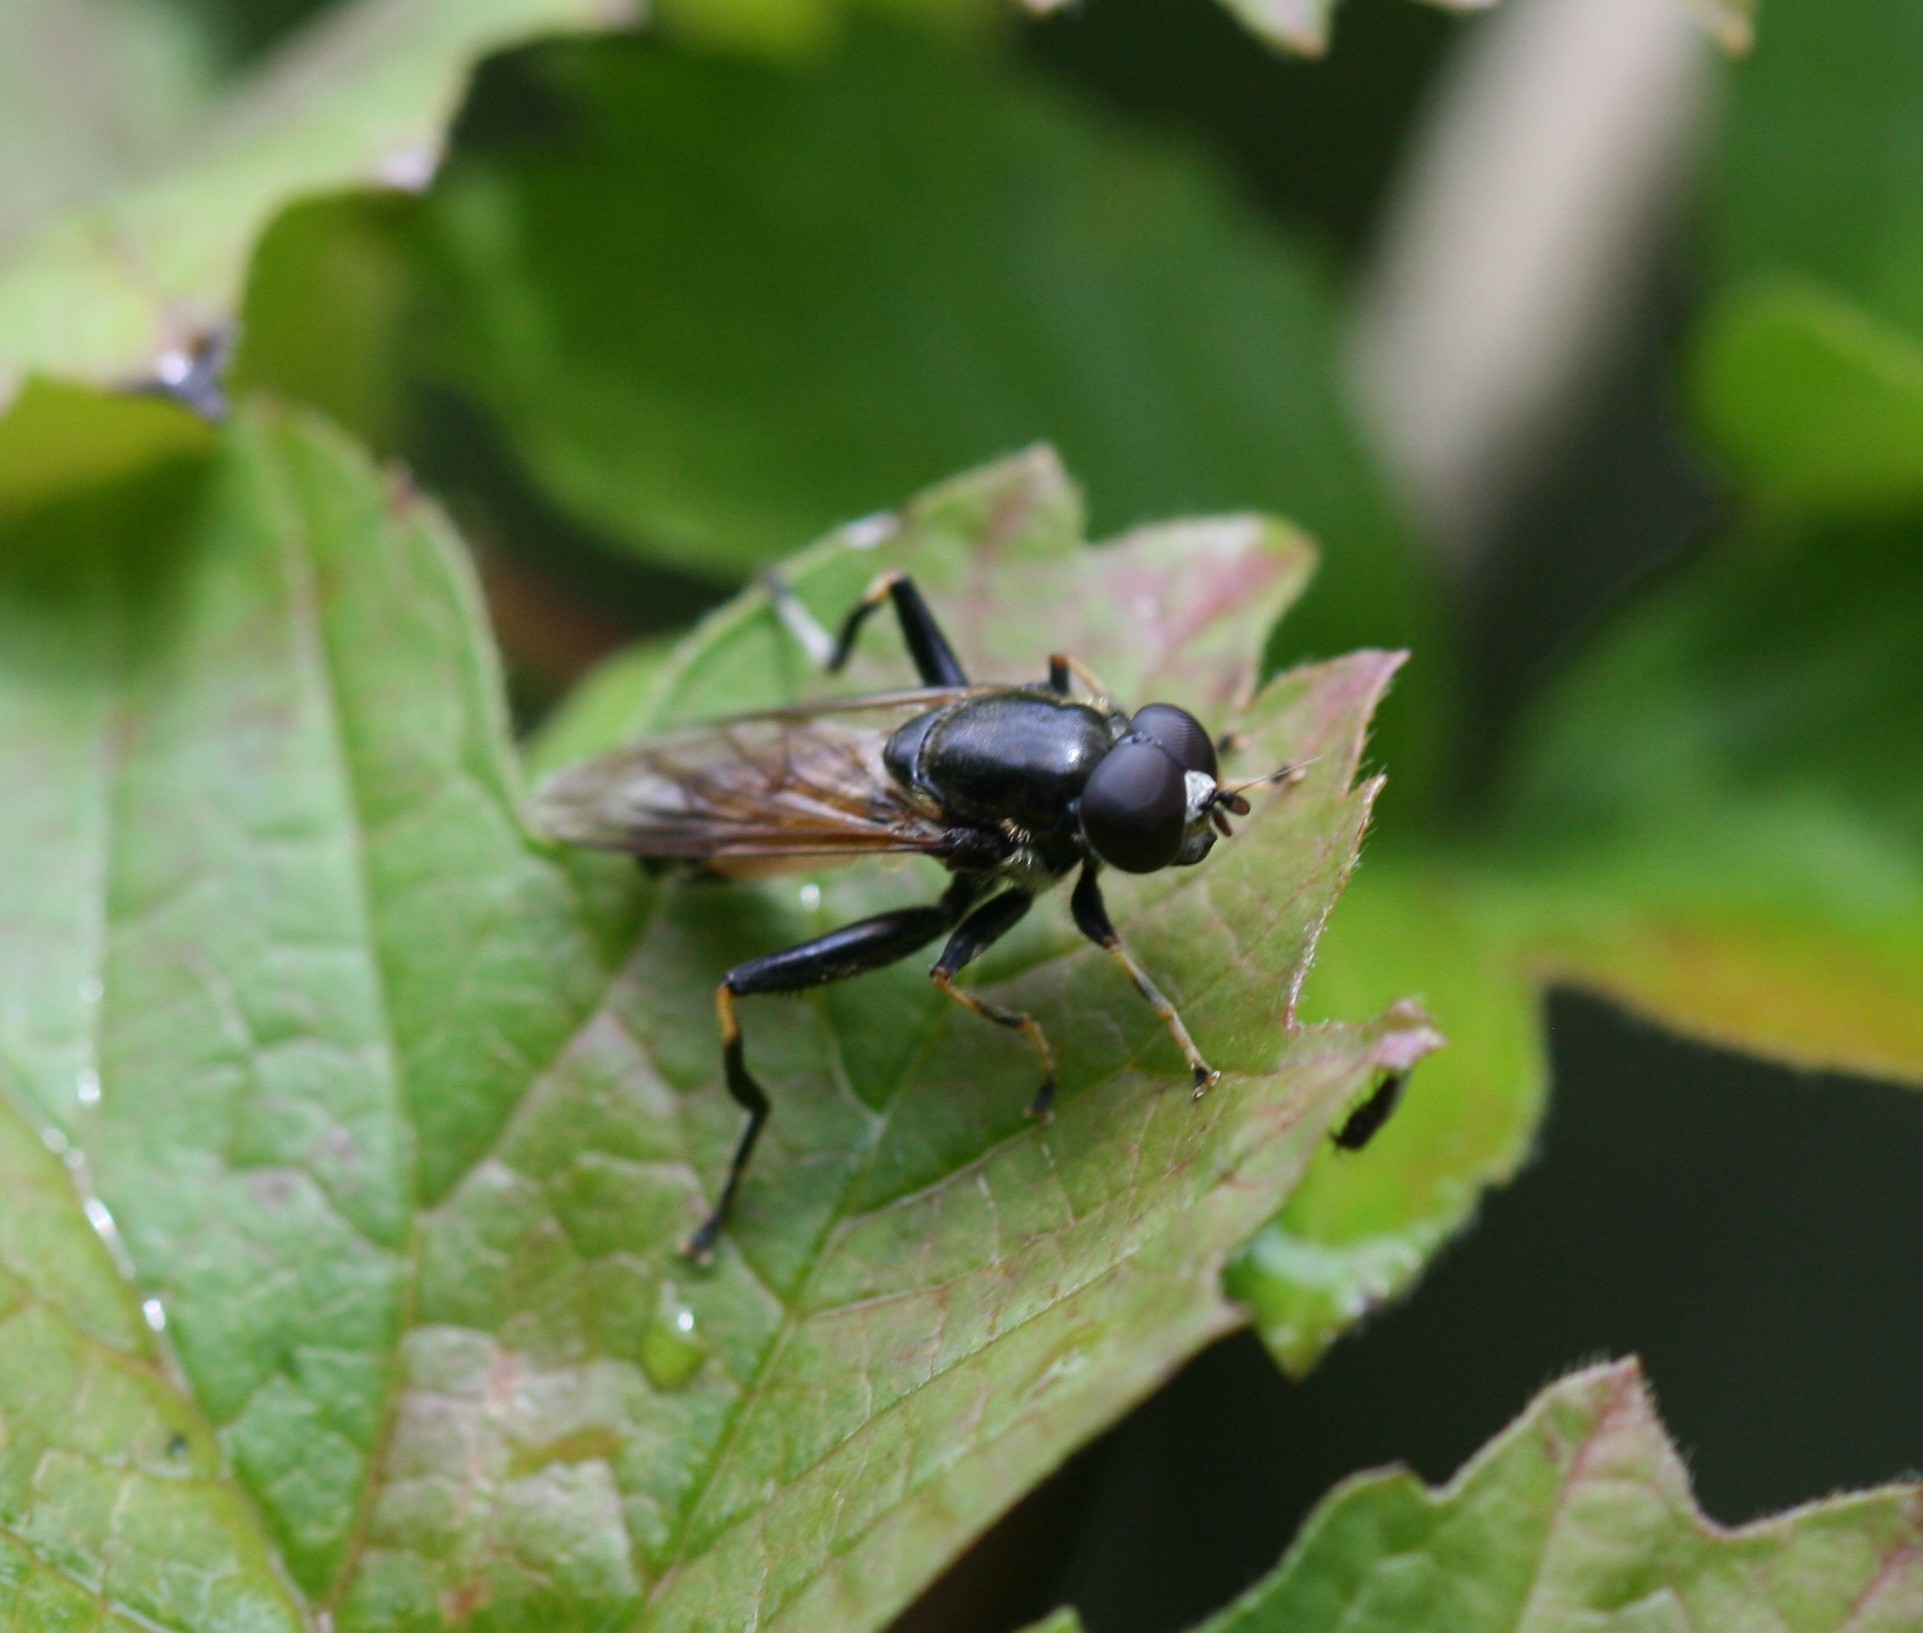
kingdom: Animalia
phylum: Arthropoda
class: Insecta
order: Diptera
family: Syrphidae
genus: Xylota
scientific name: Xylota segnis
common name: Brown-toed forest fly
